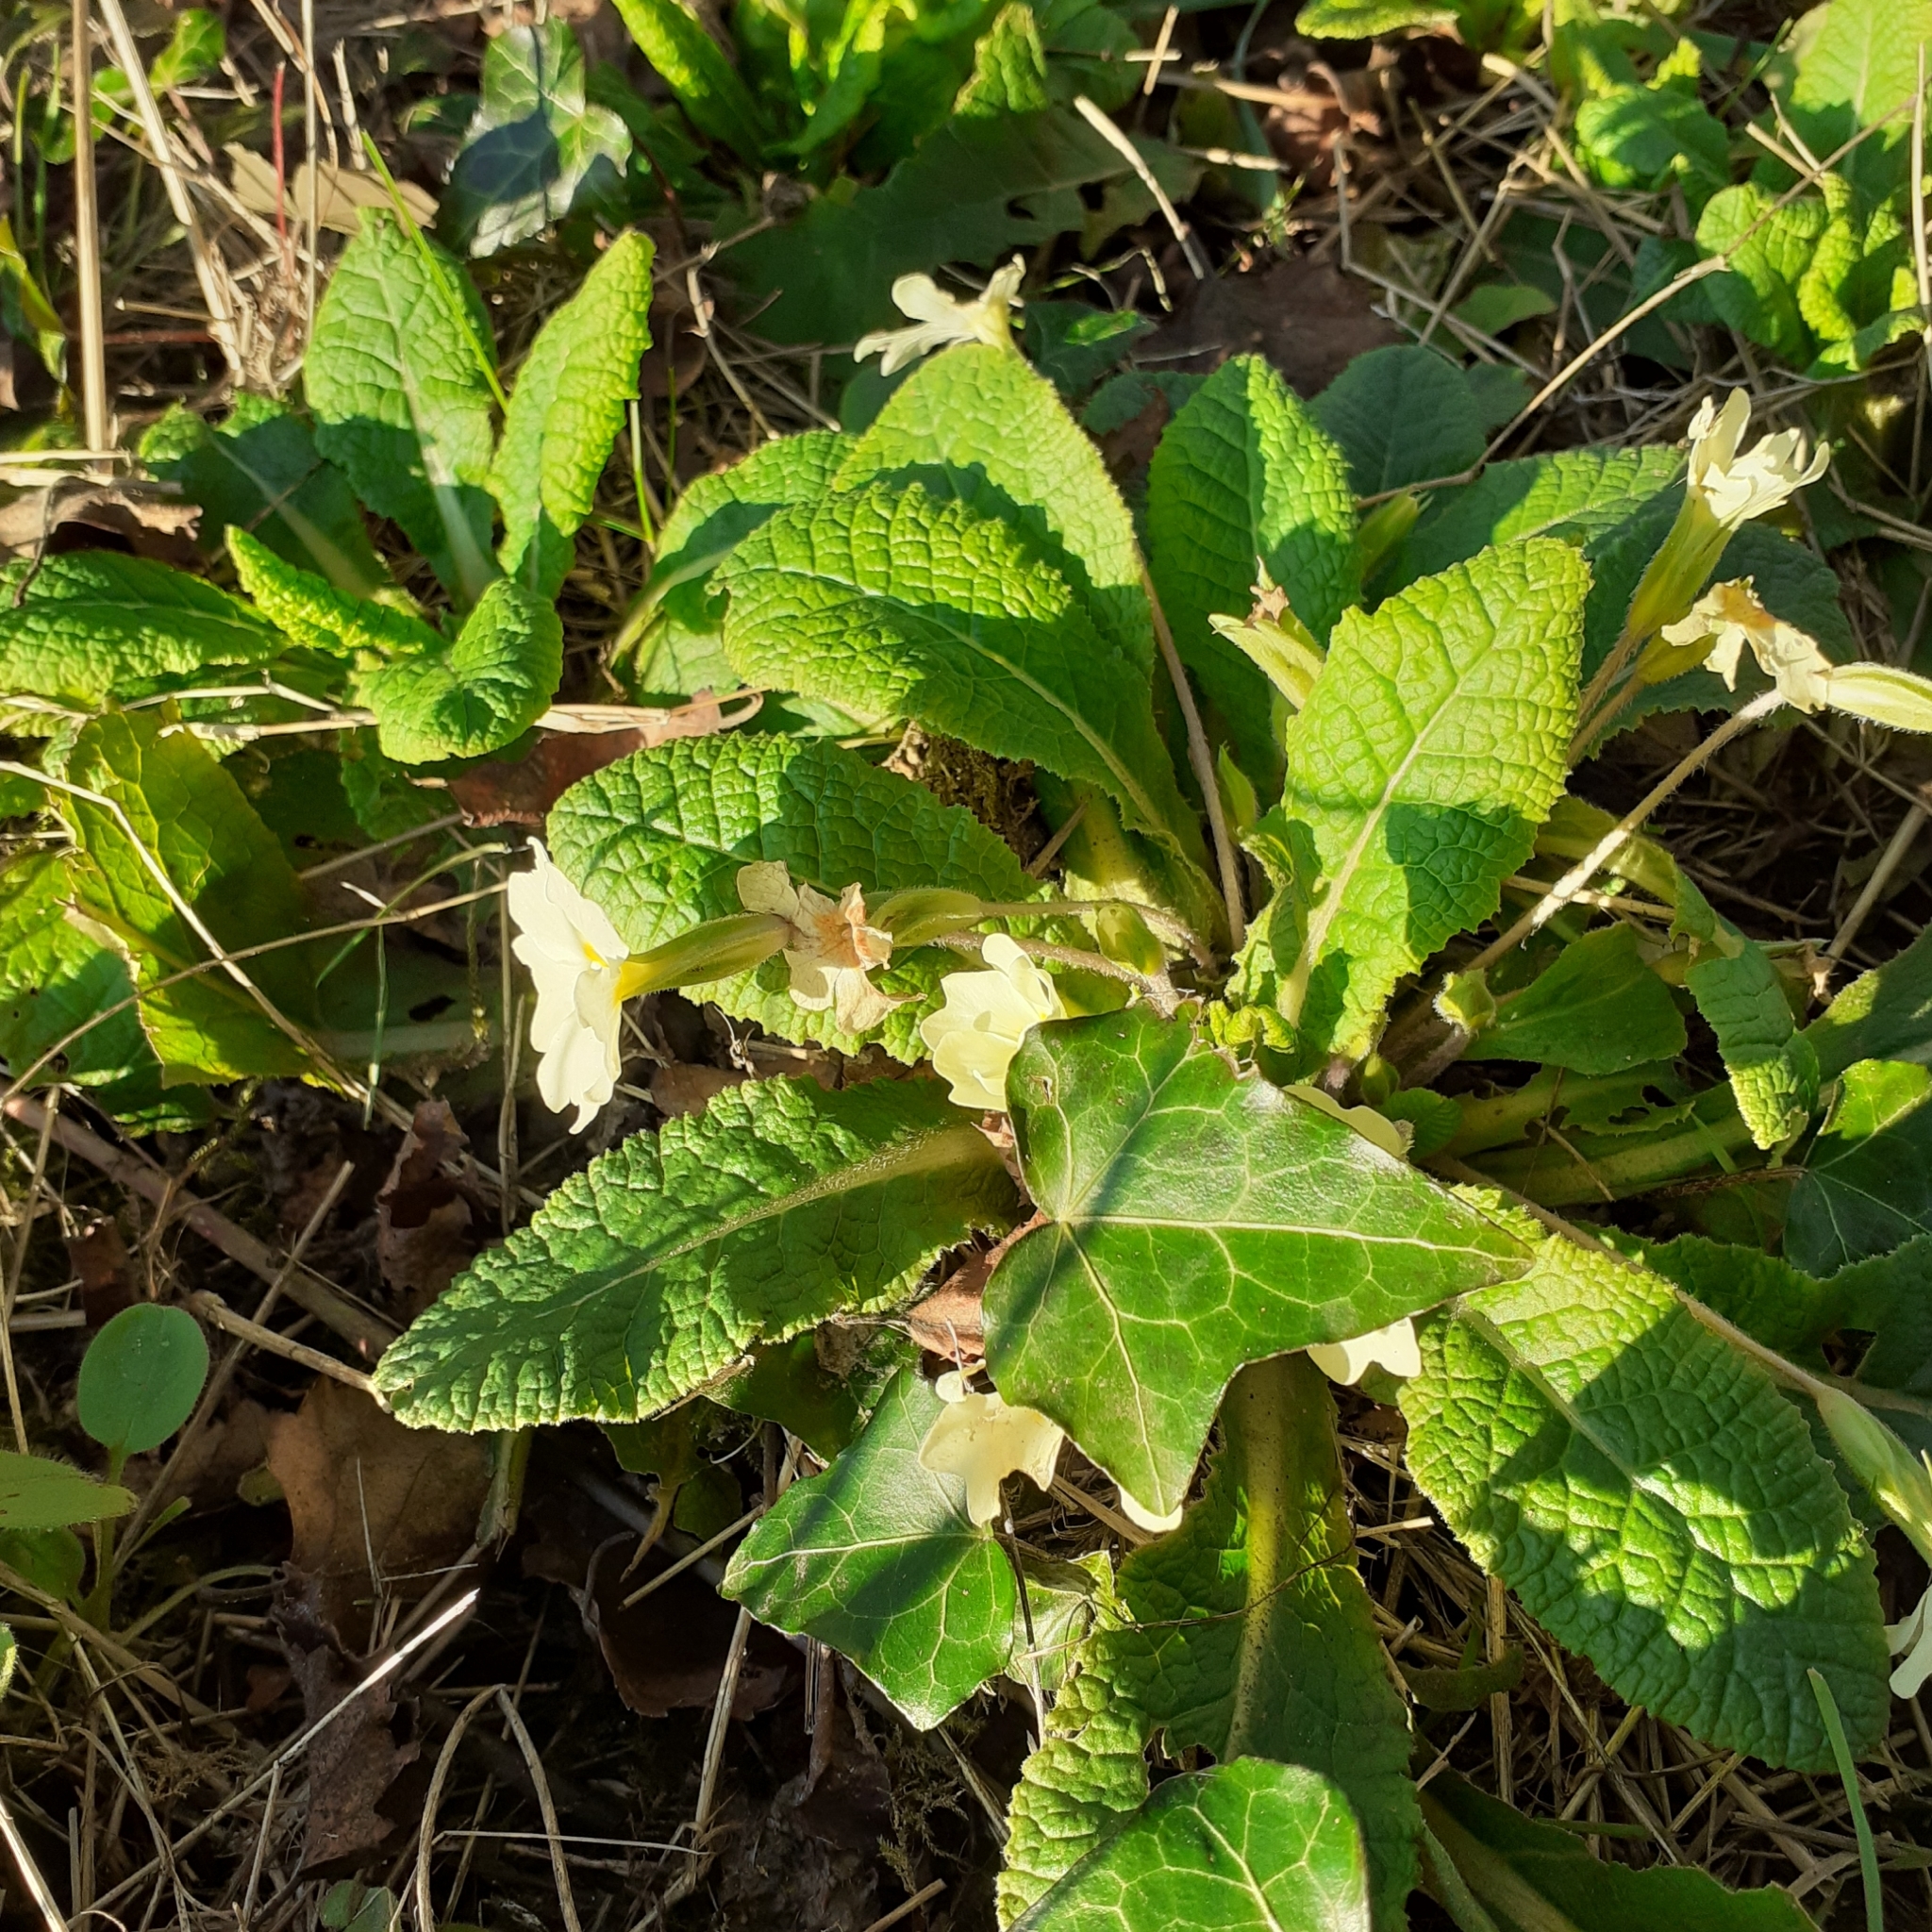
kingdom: Plantae
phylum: Tracheophyta
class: Magnoliopsida
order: Ericales
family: Primulaceae
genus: Primula
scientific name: Primula vulgaris
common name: Primrose
